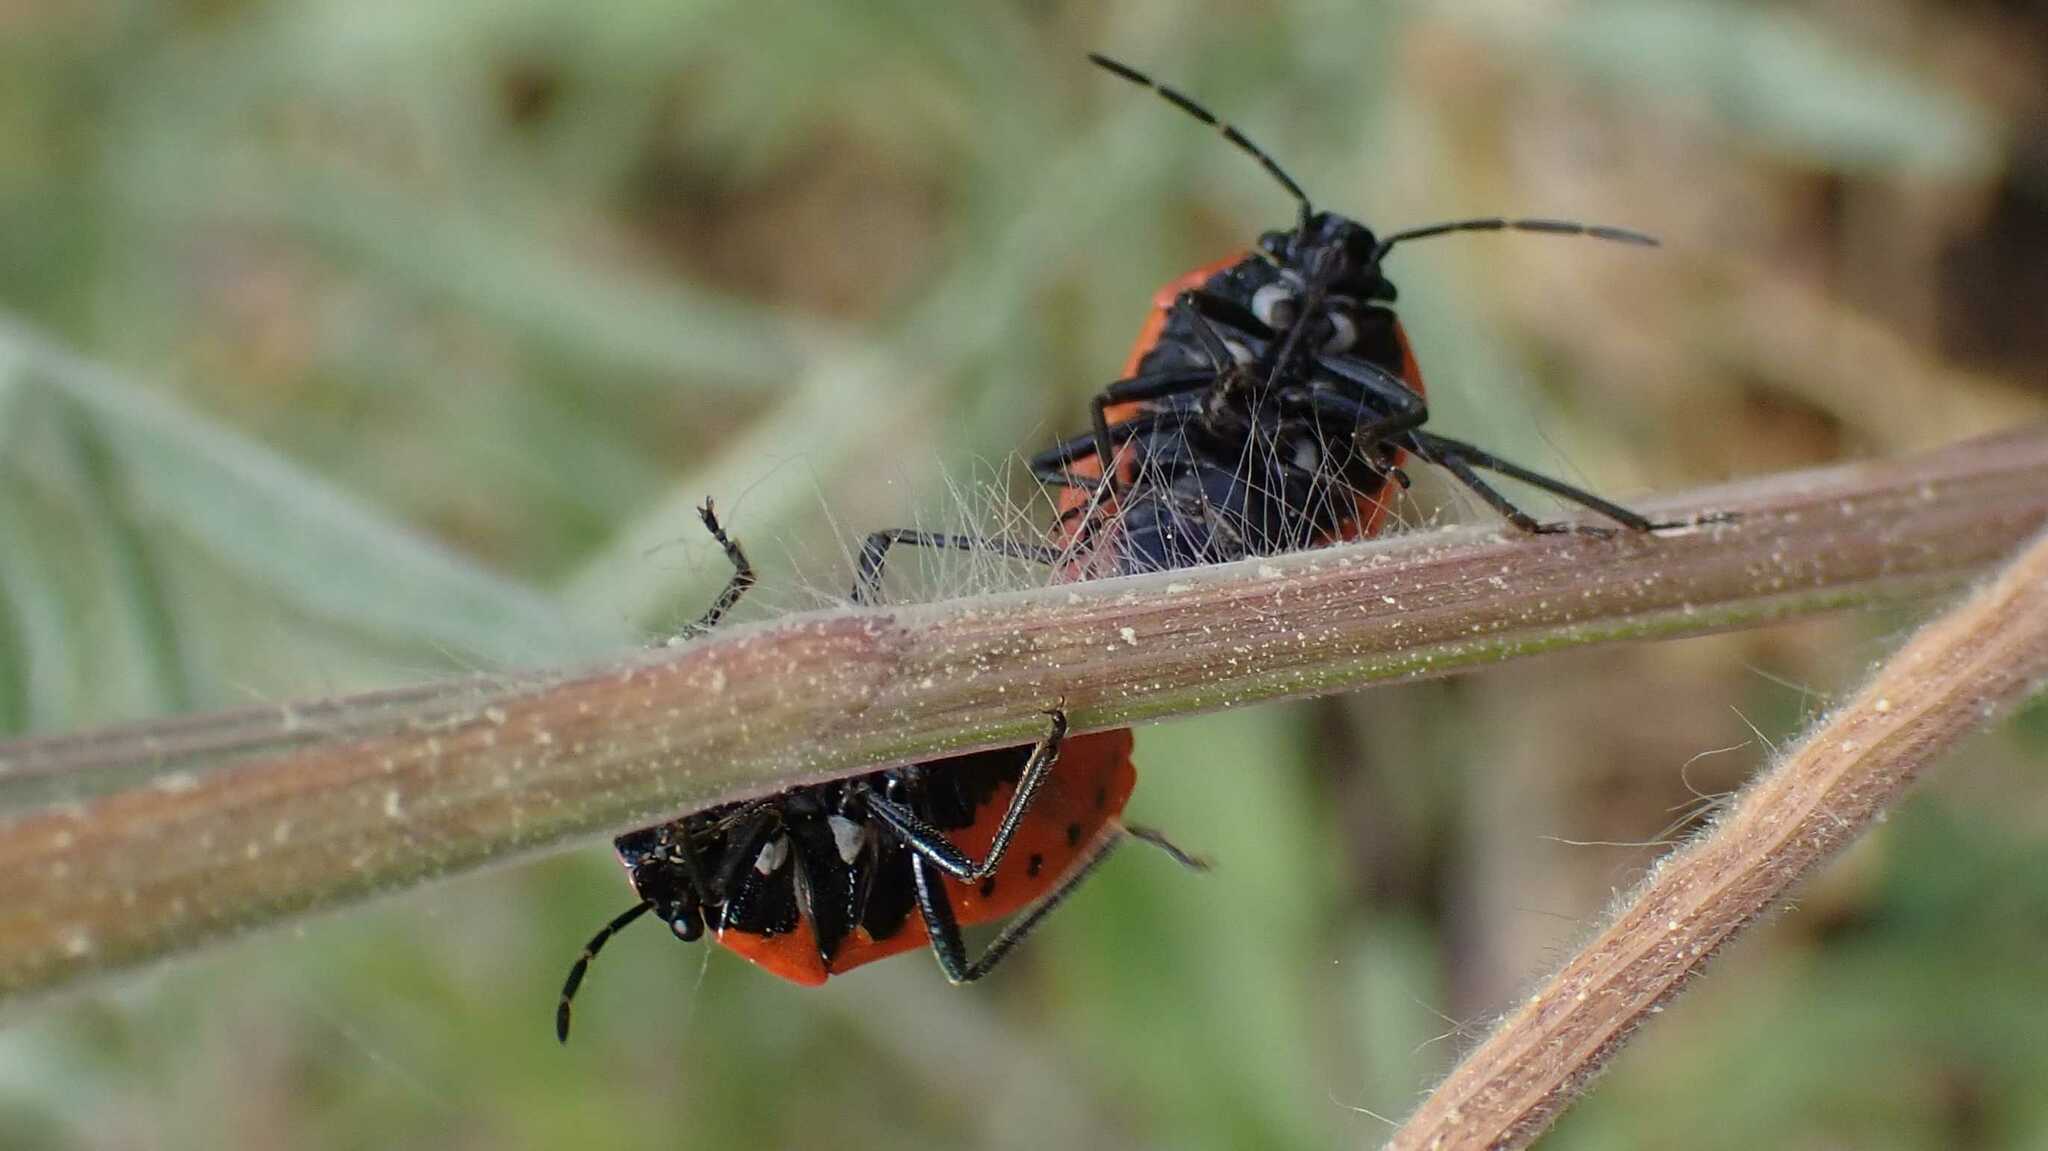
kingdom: Animalia
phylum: Arthropoda
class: Insecta
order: Hemiptera
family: Pentatomidae
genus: Eurydema
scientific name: Eurydema ornata
